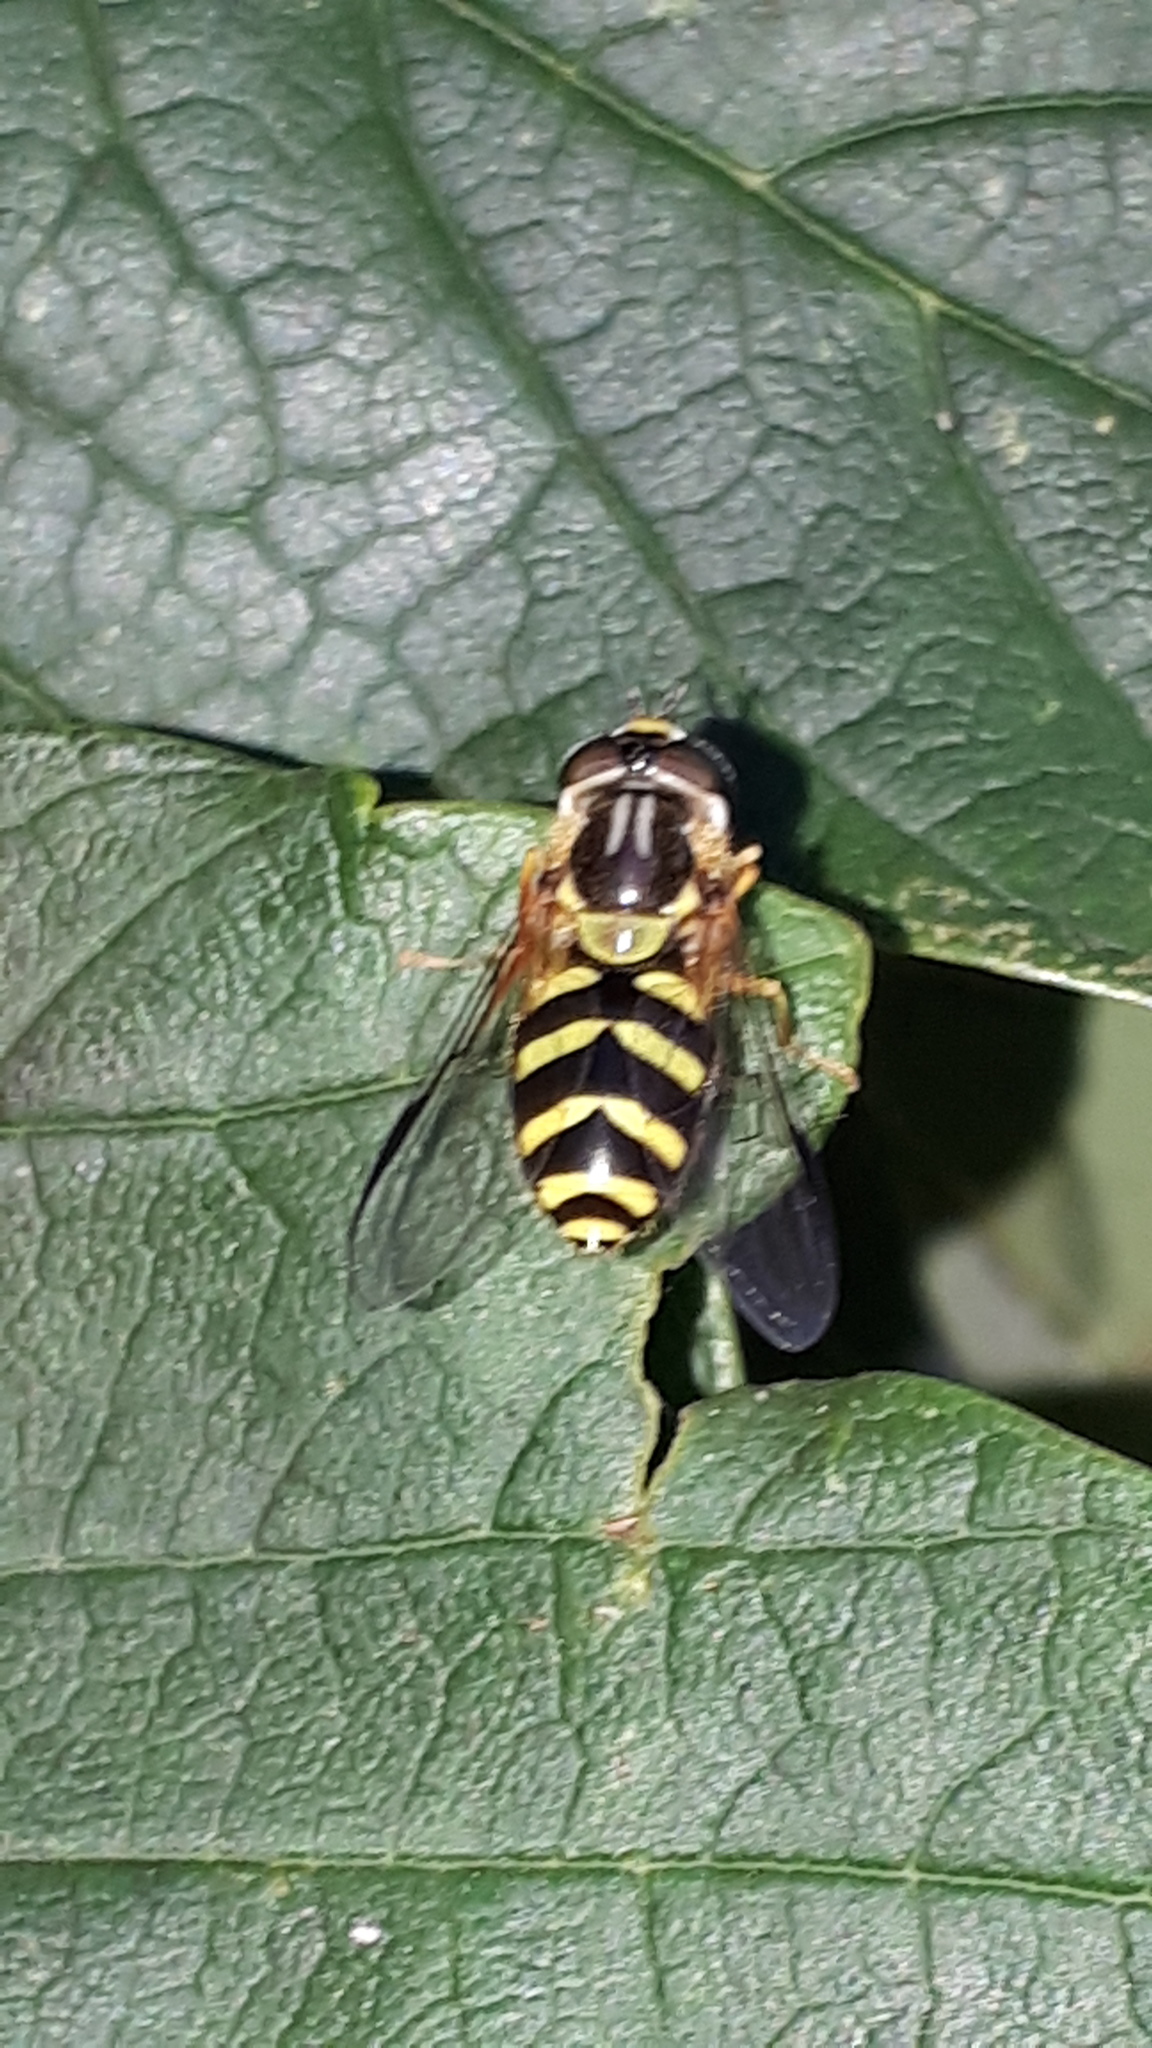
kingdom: Animalia
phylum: Arthropoda
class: Insecta
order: Diptera
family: Syrphidae
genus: Dasysyrphus
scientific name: Dasysyrphus albostriatus
